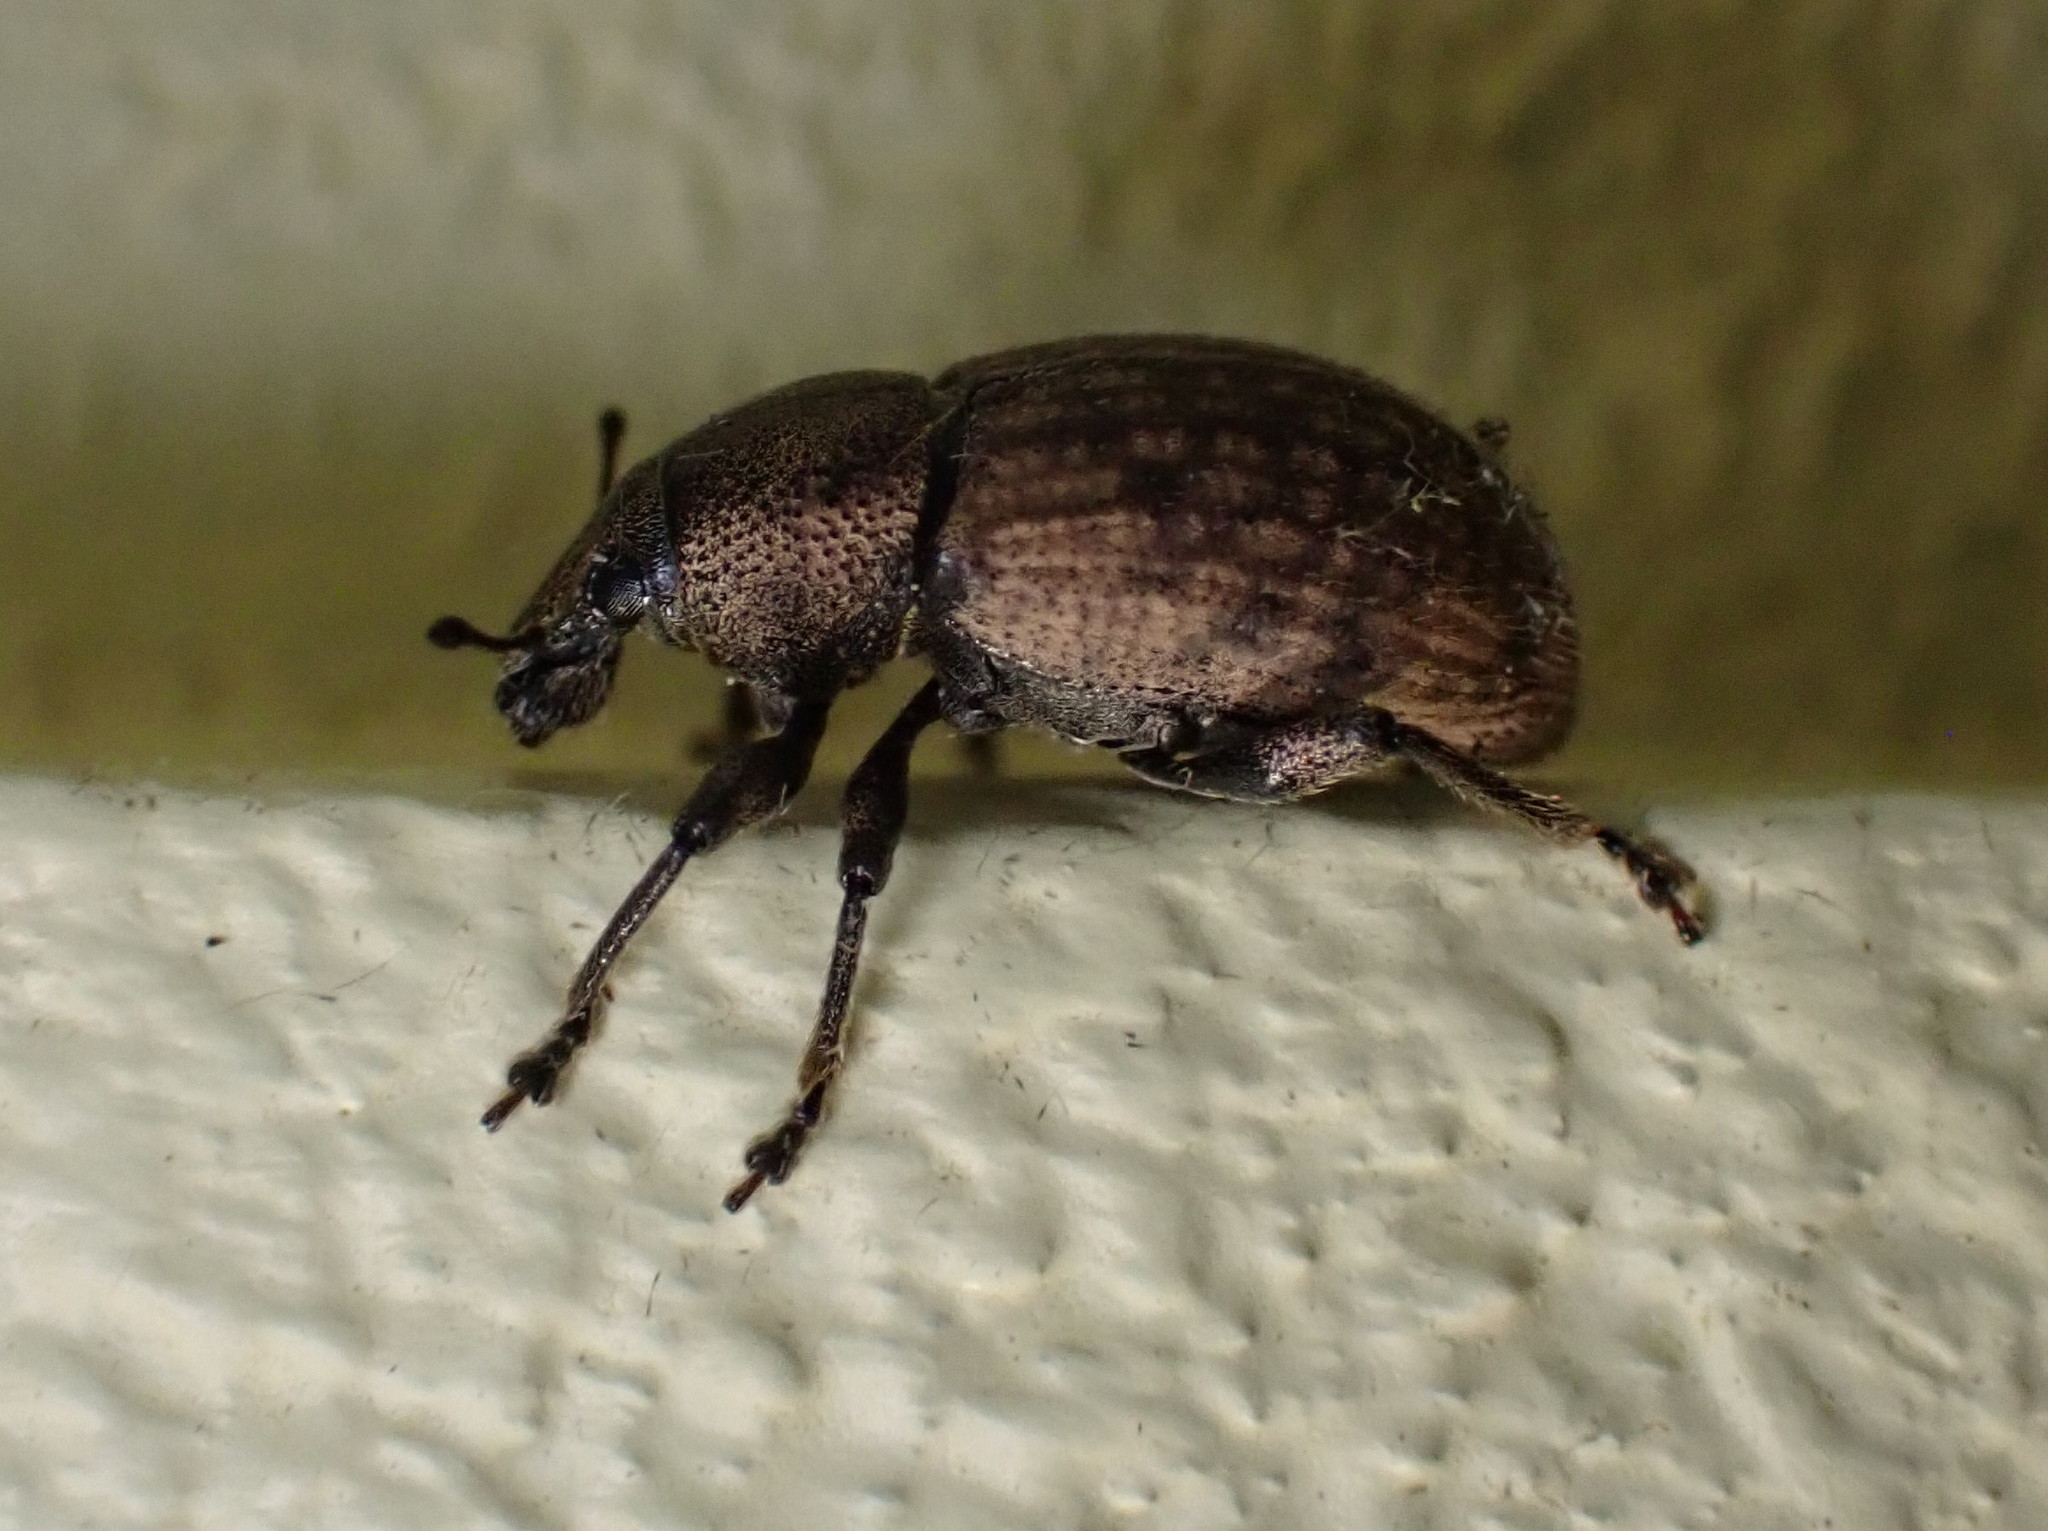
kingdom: Animalia
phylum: Arthropoda
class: Insecta
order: Coleoptera
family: Curculionidae
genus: Barynotus
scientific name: Barynotus obscurus
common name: Weevil
